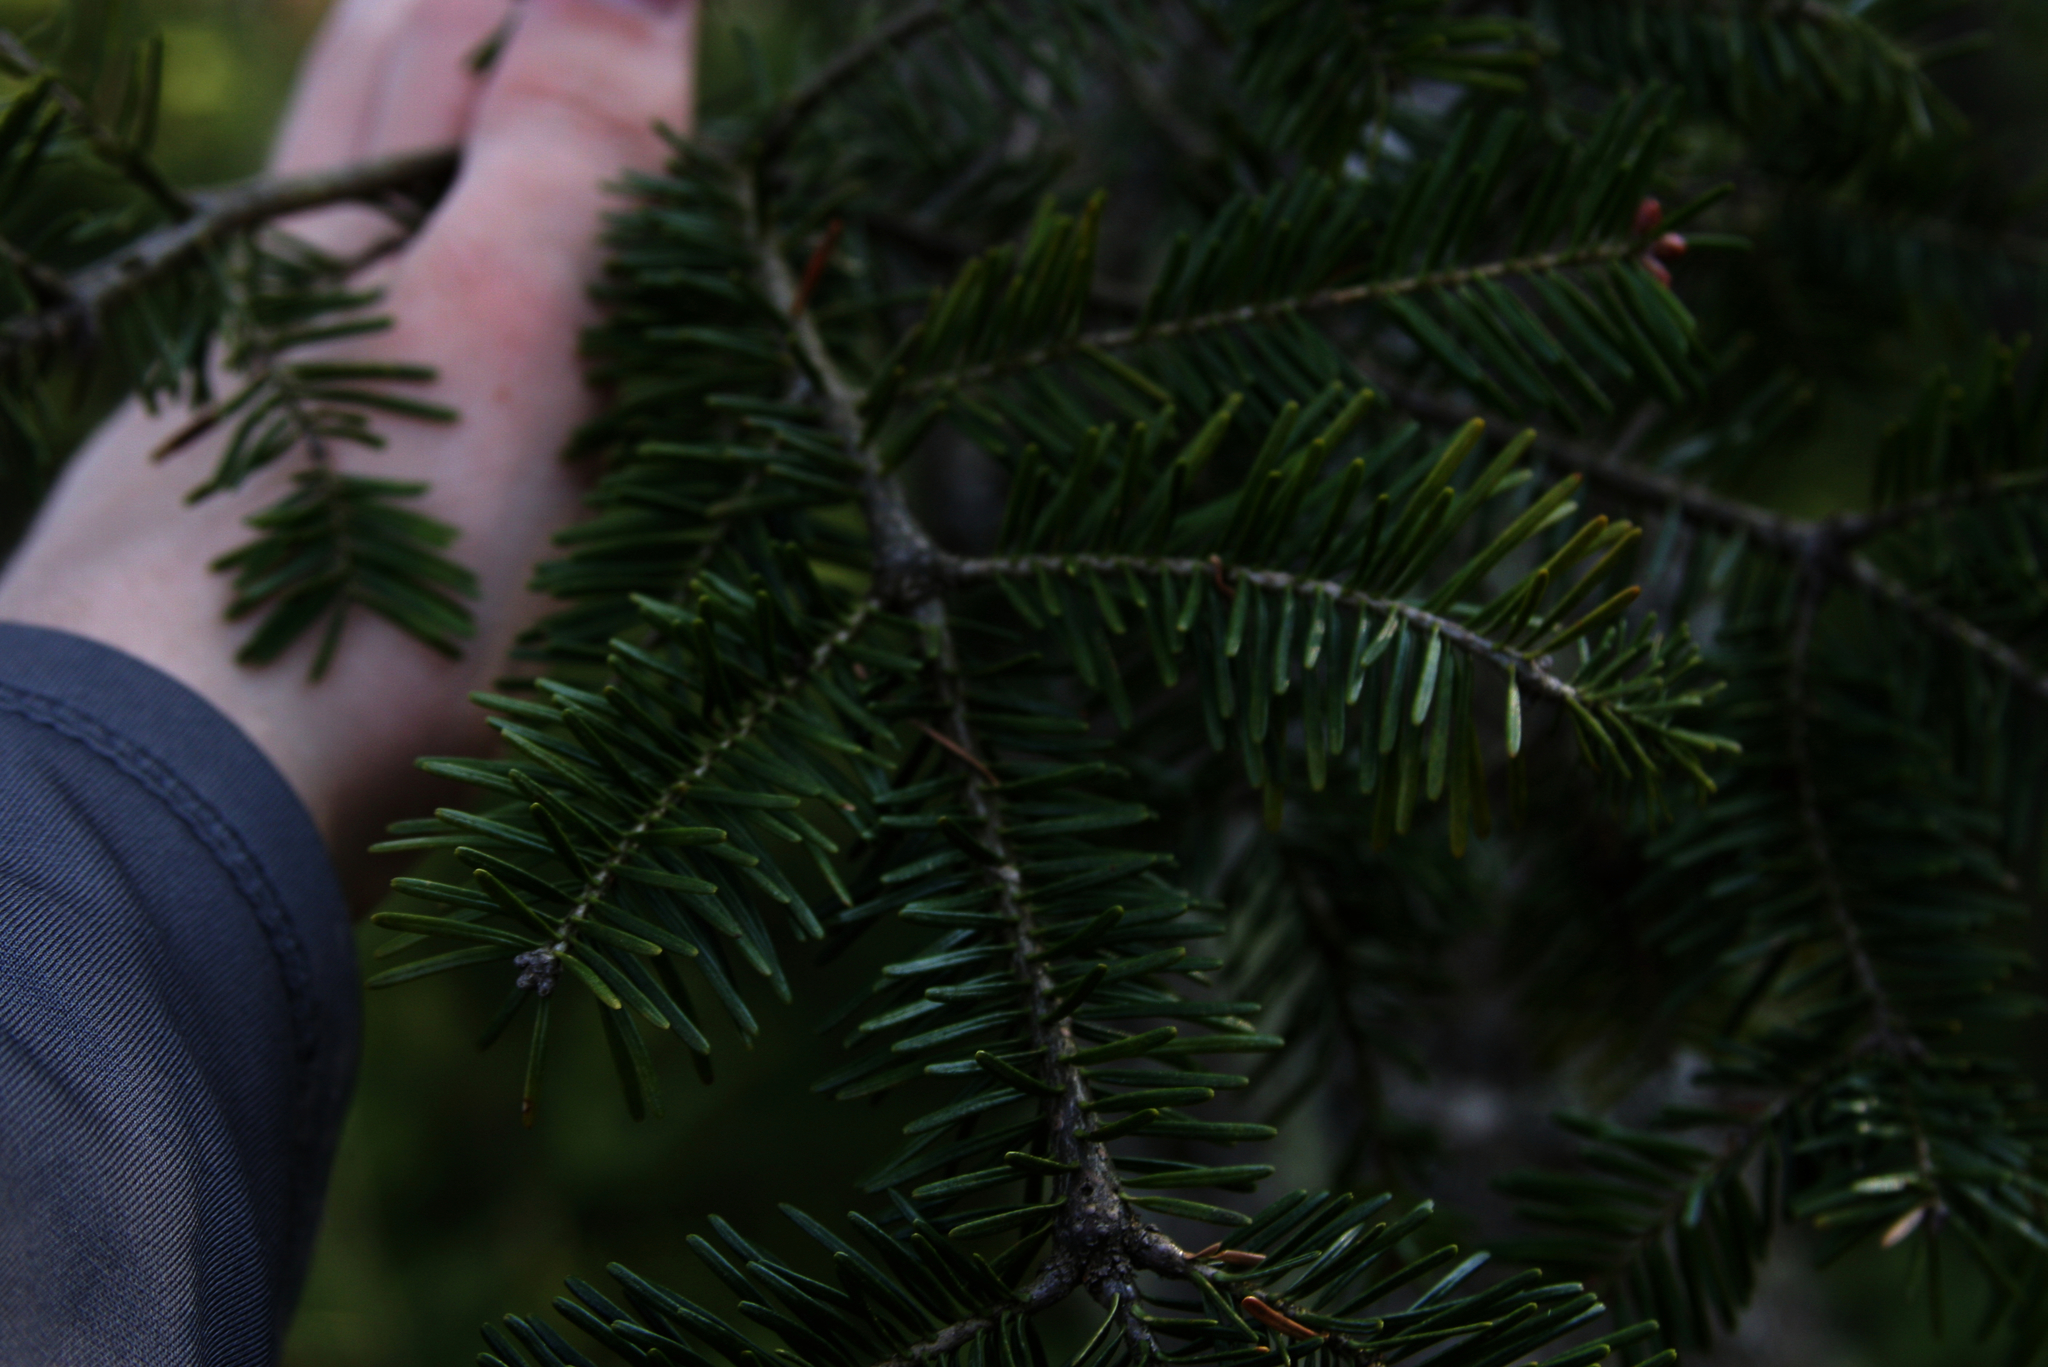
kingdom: Plantae
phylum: Tracheophyta
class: Pinopsida
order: Pinales
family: Pinaceae
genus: Abies
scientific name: Abies balsamea
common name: Balsam fir
